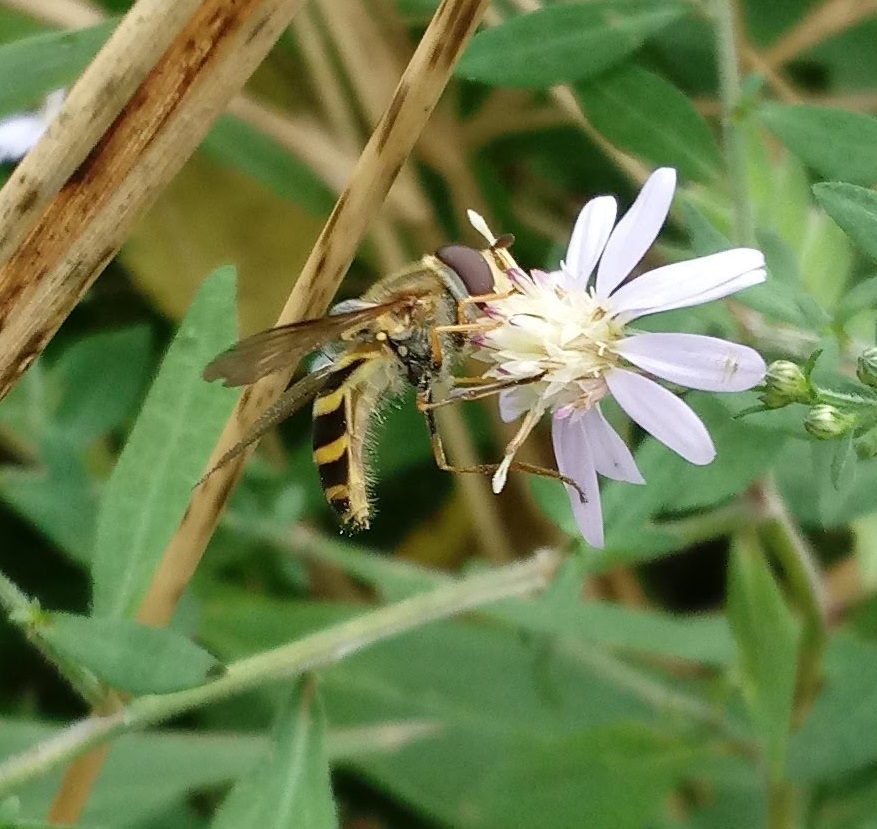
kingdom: Animalia
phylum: Arthropoda
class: Insecta
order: Diptera
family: Syrphidae
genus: Syrphus
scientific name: Syrphus
